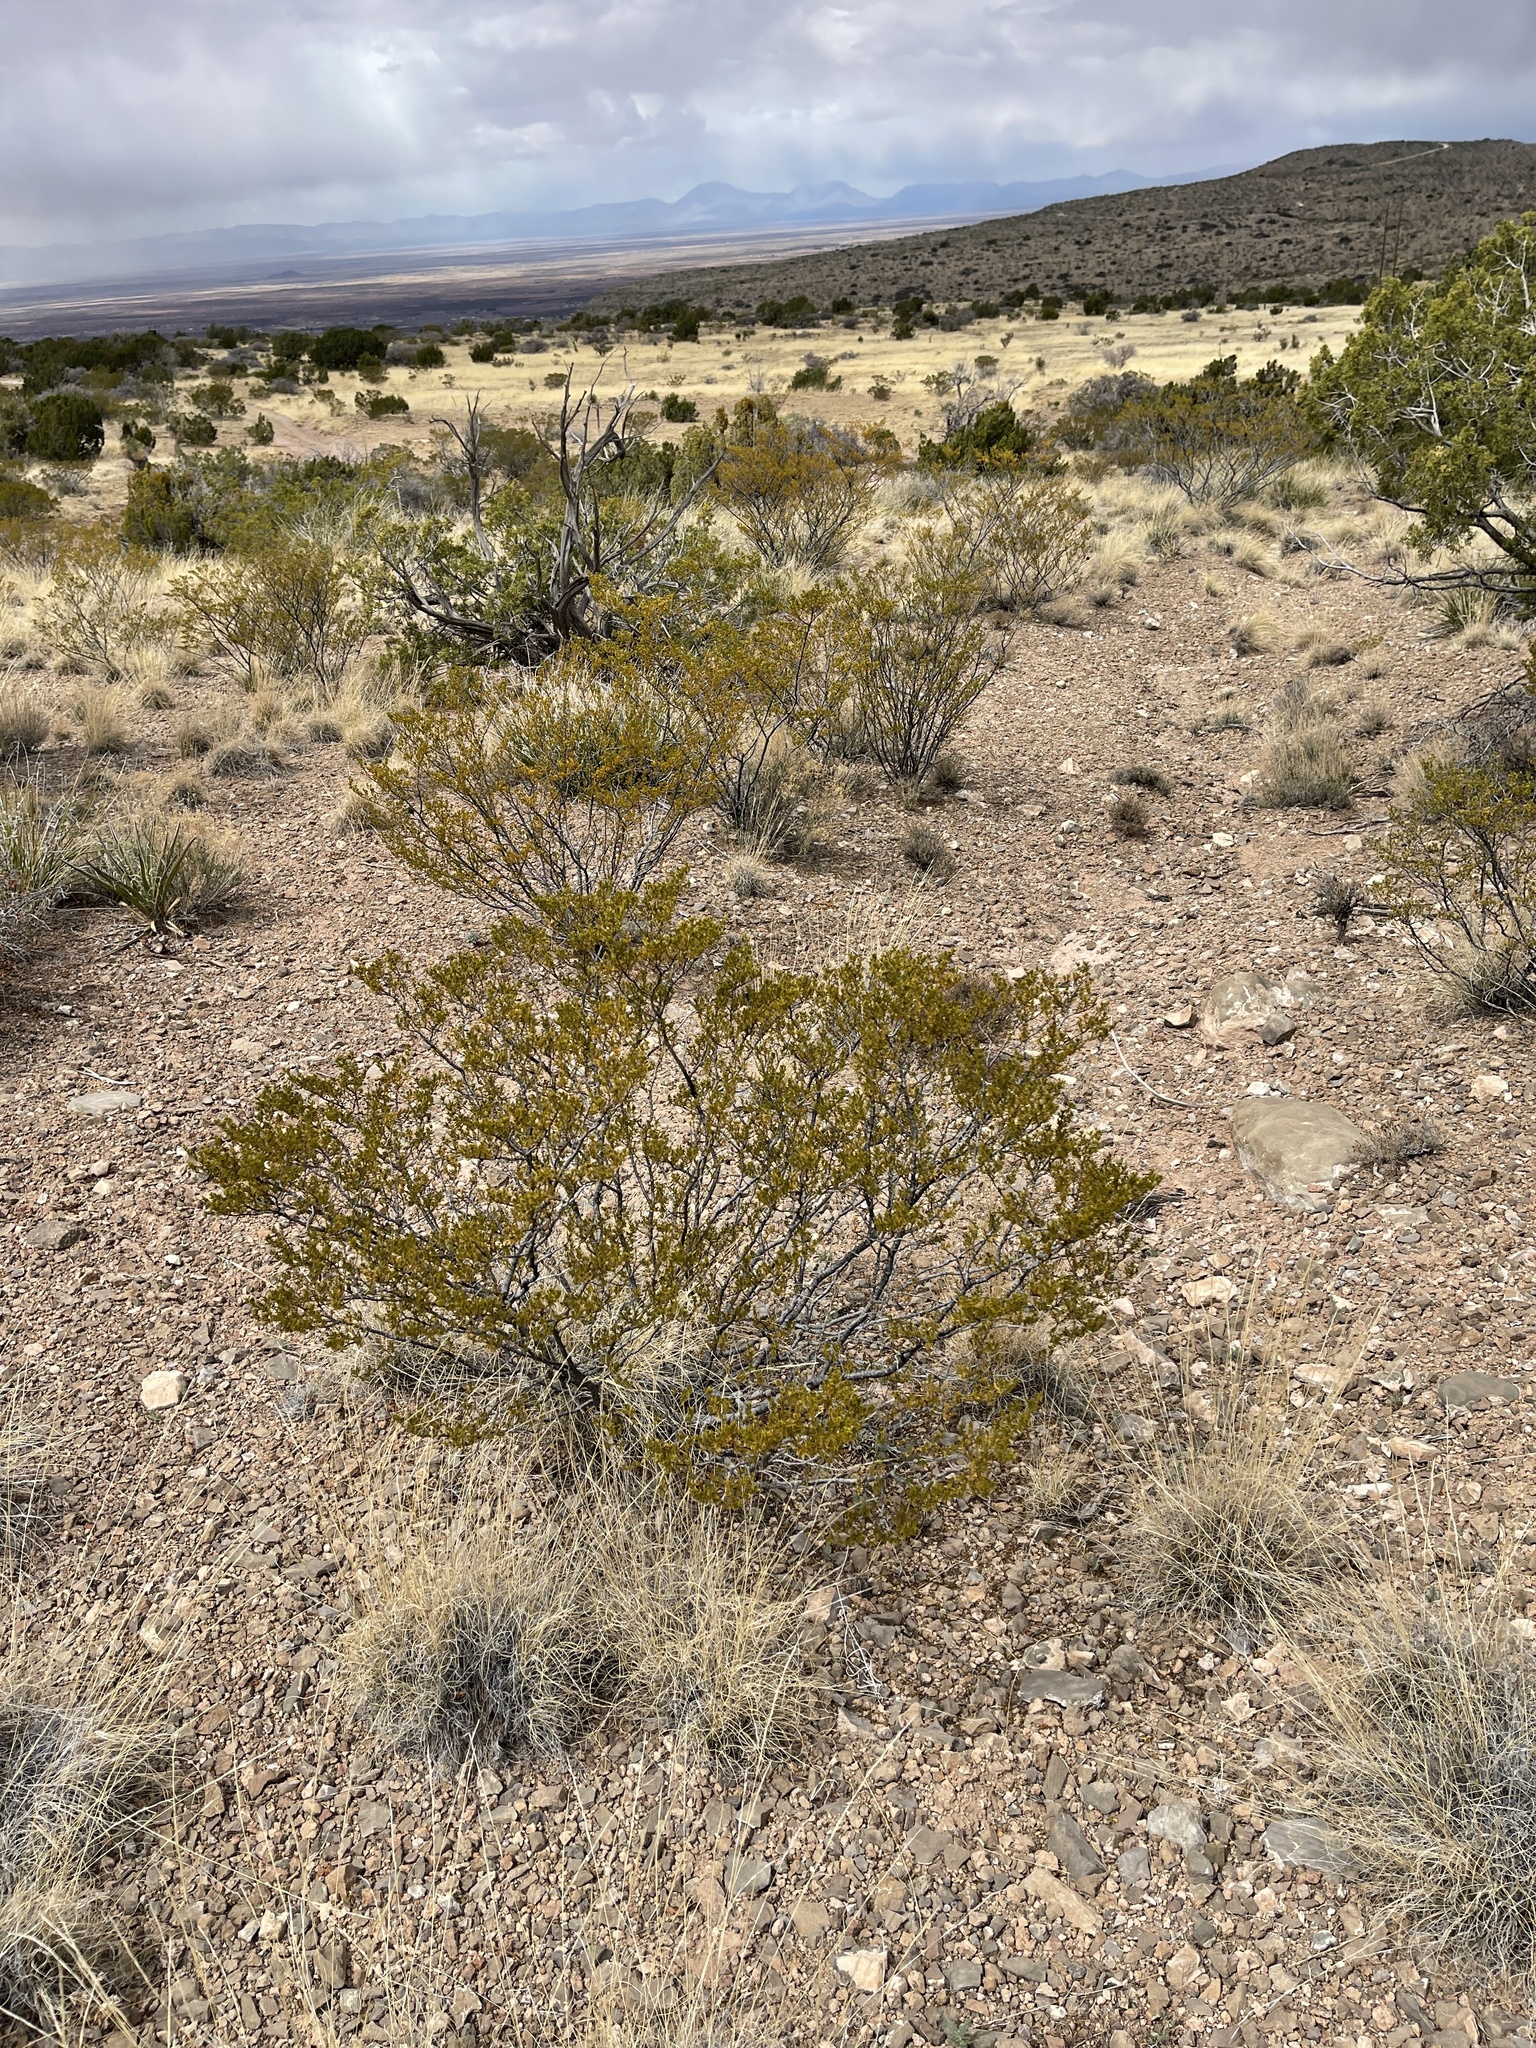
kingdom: Plantae
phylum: Tracheophyta
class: Magnoliopsida
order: Zygophyllales
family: Zygophyllaceae
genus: Larrea
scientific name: Larrea tridentata
